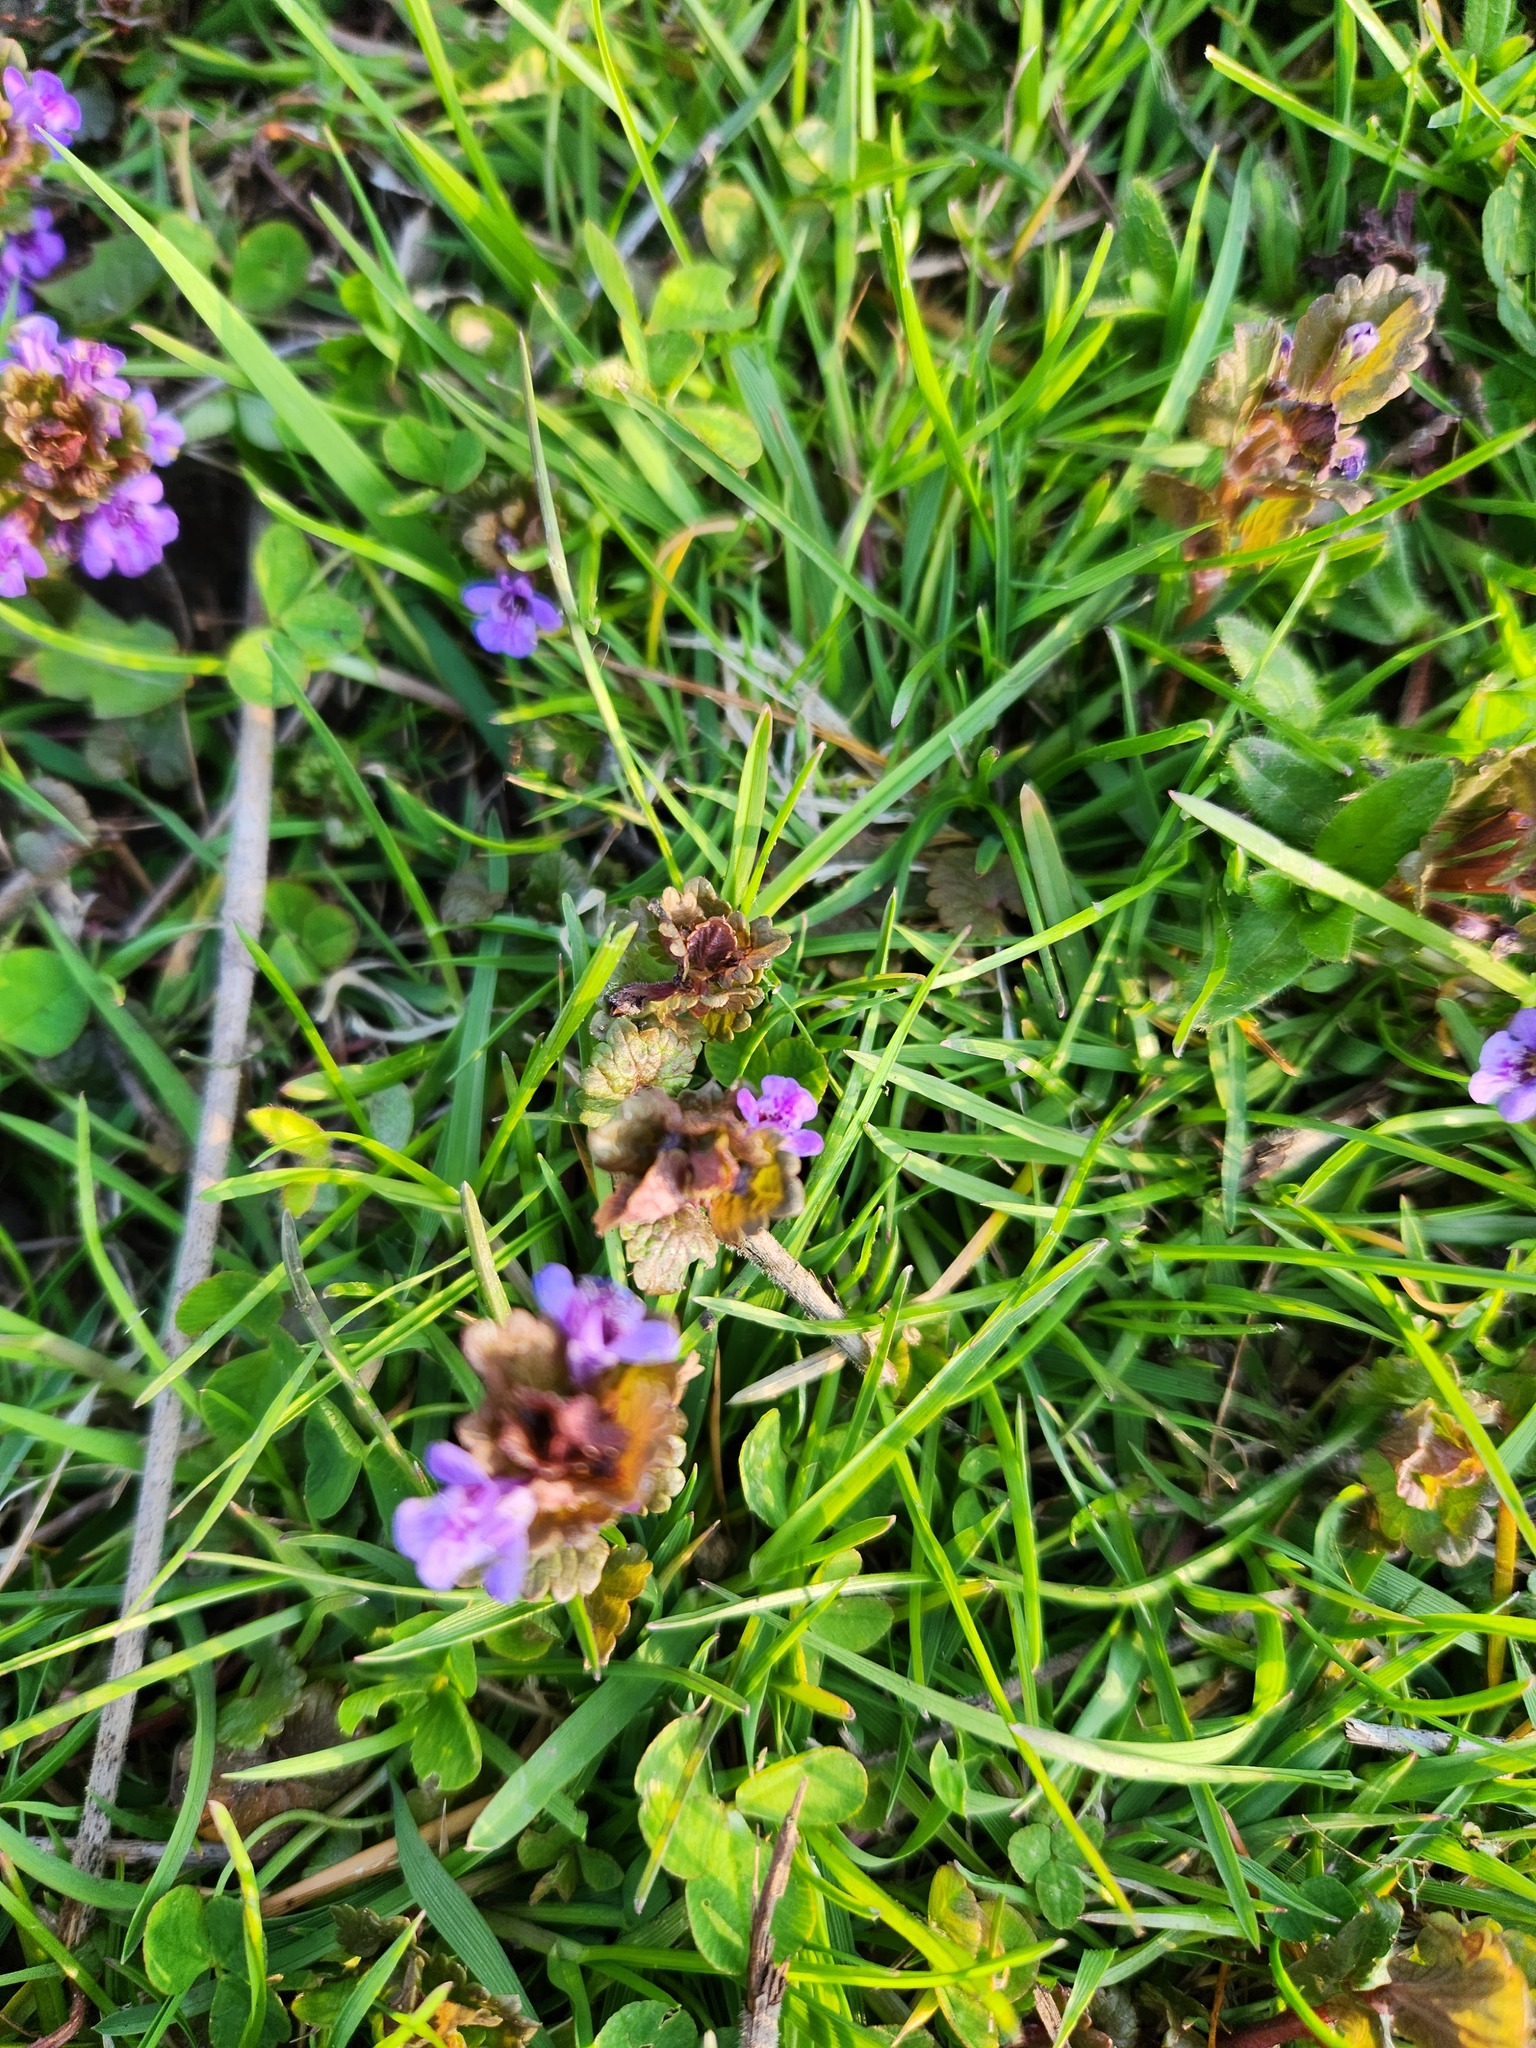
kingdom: Plantae
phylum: Tracheophyta
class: Magnoliopsida
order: Lamiales
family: Lamiaceae
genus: Glechoma
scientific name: Glechoma hederacea
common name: Ground ivy
